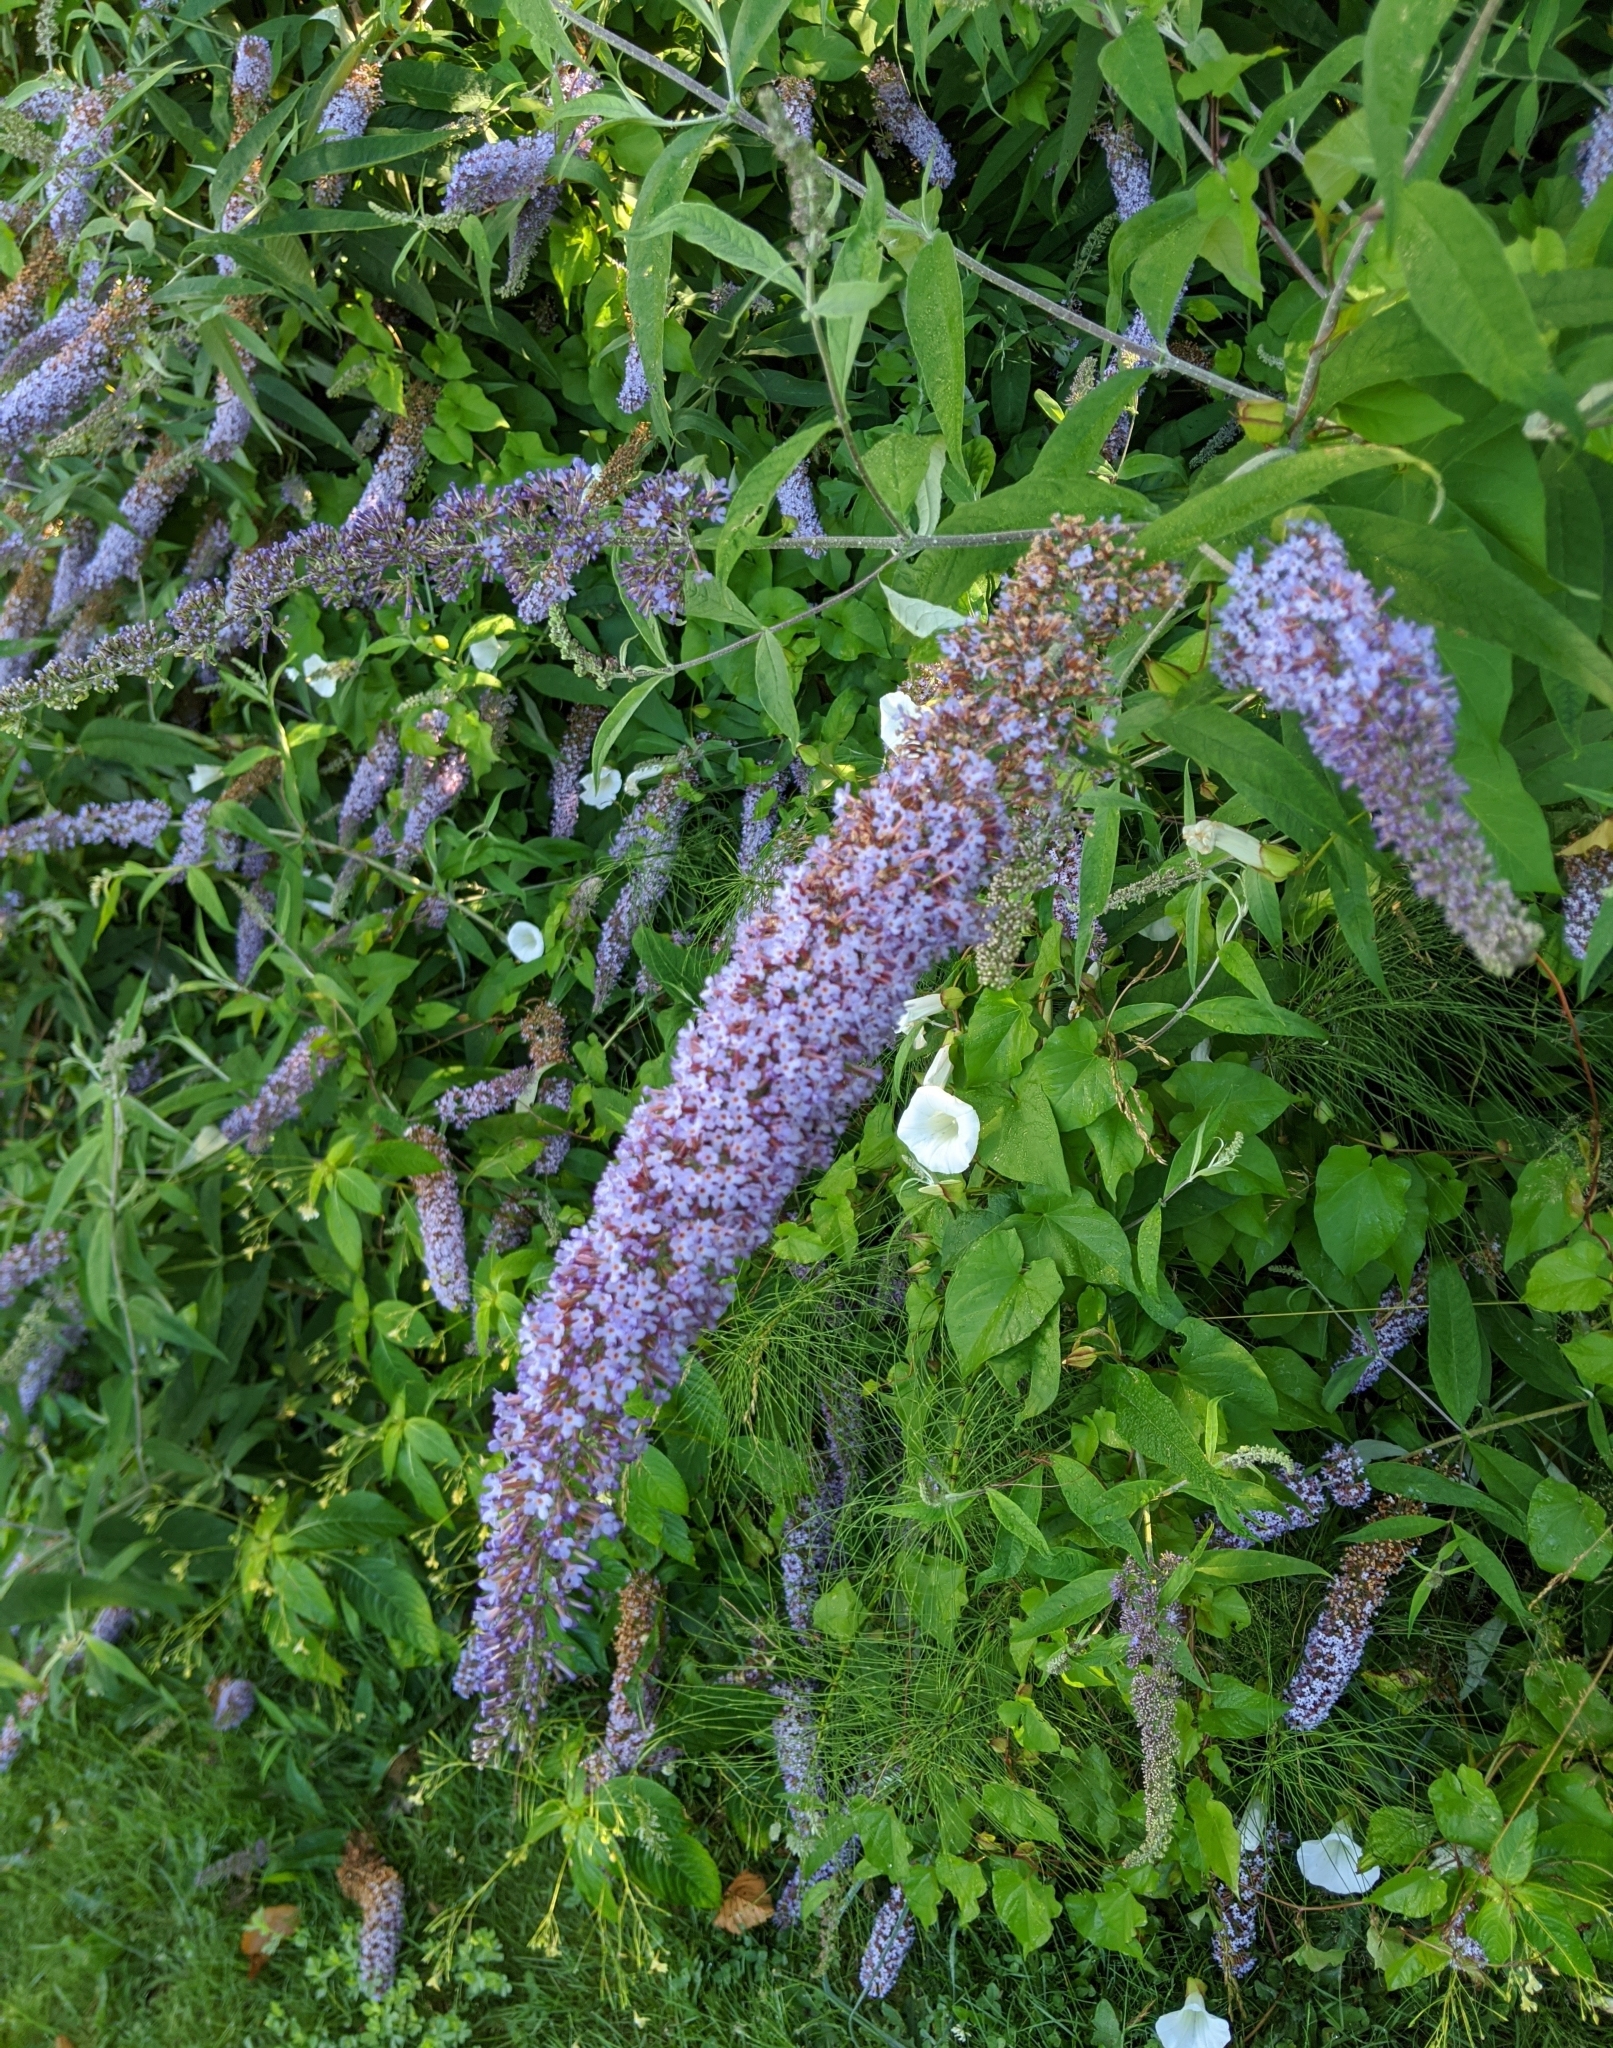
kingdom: Plantae
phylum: Tracheophyta
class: Magnoliopsida
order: Lamiales
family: Scrophulariaceae
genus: Buddleja
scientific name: Buddleja davidii
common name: Butterfly-bush
